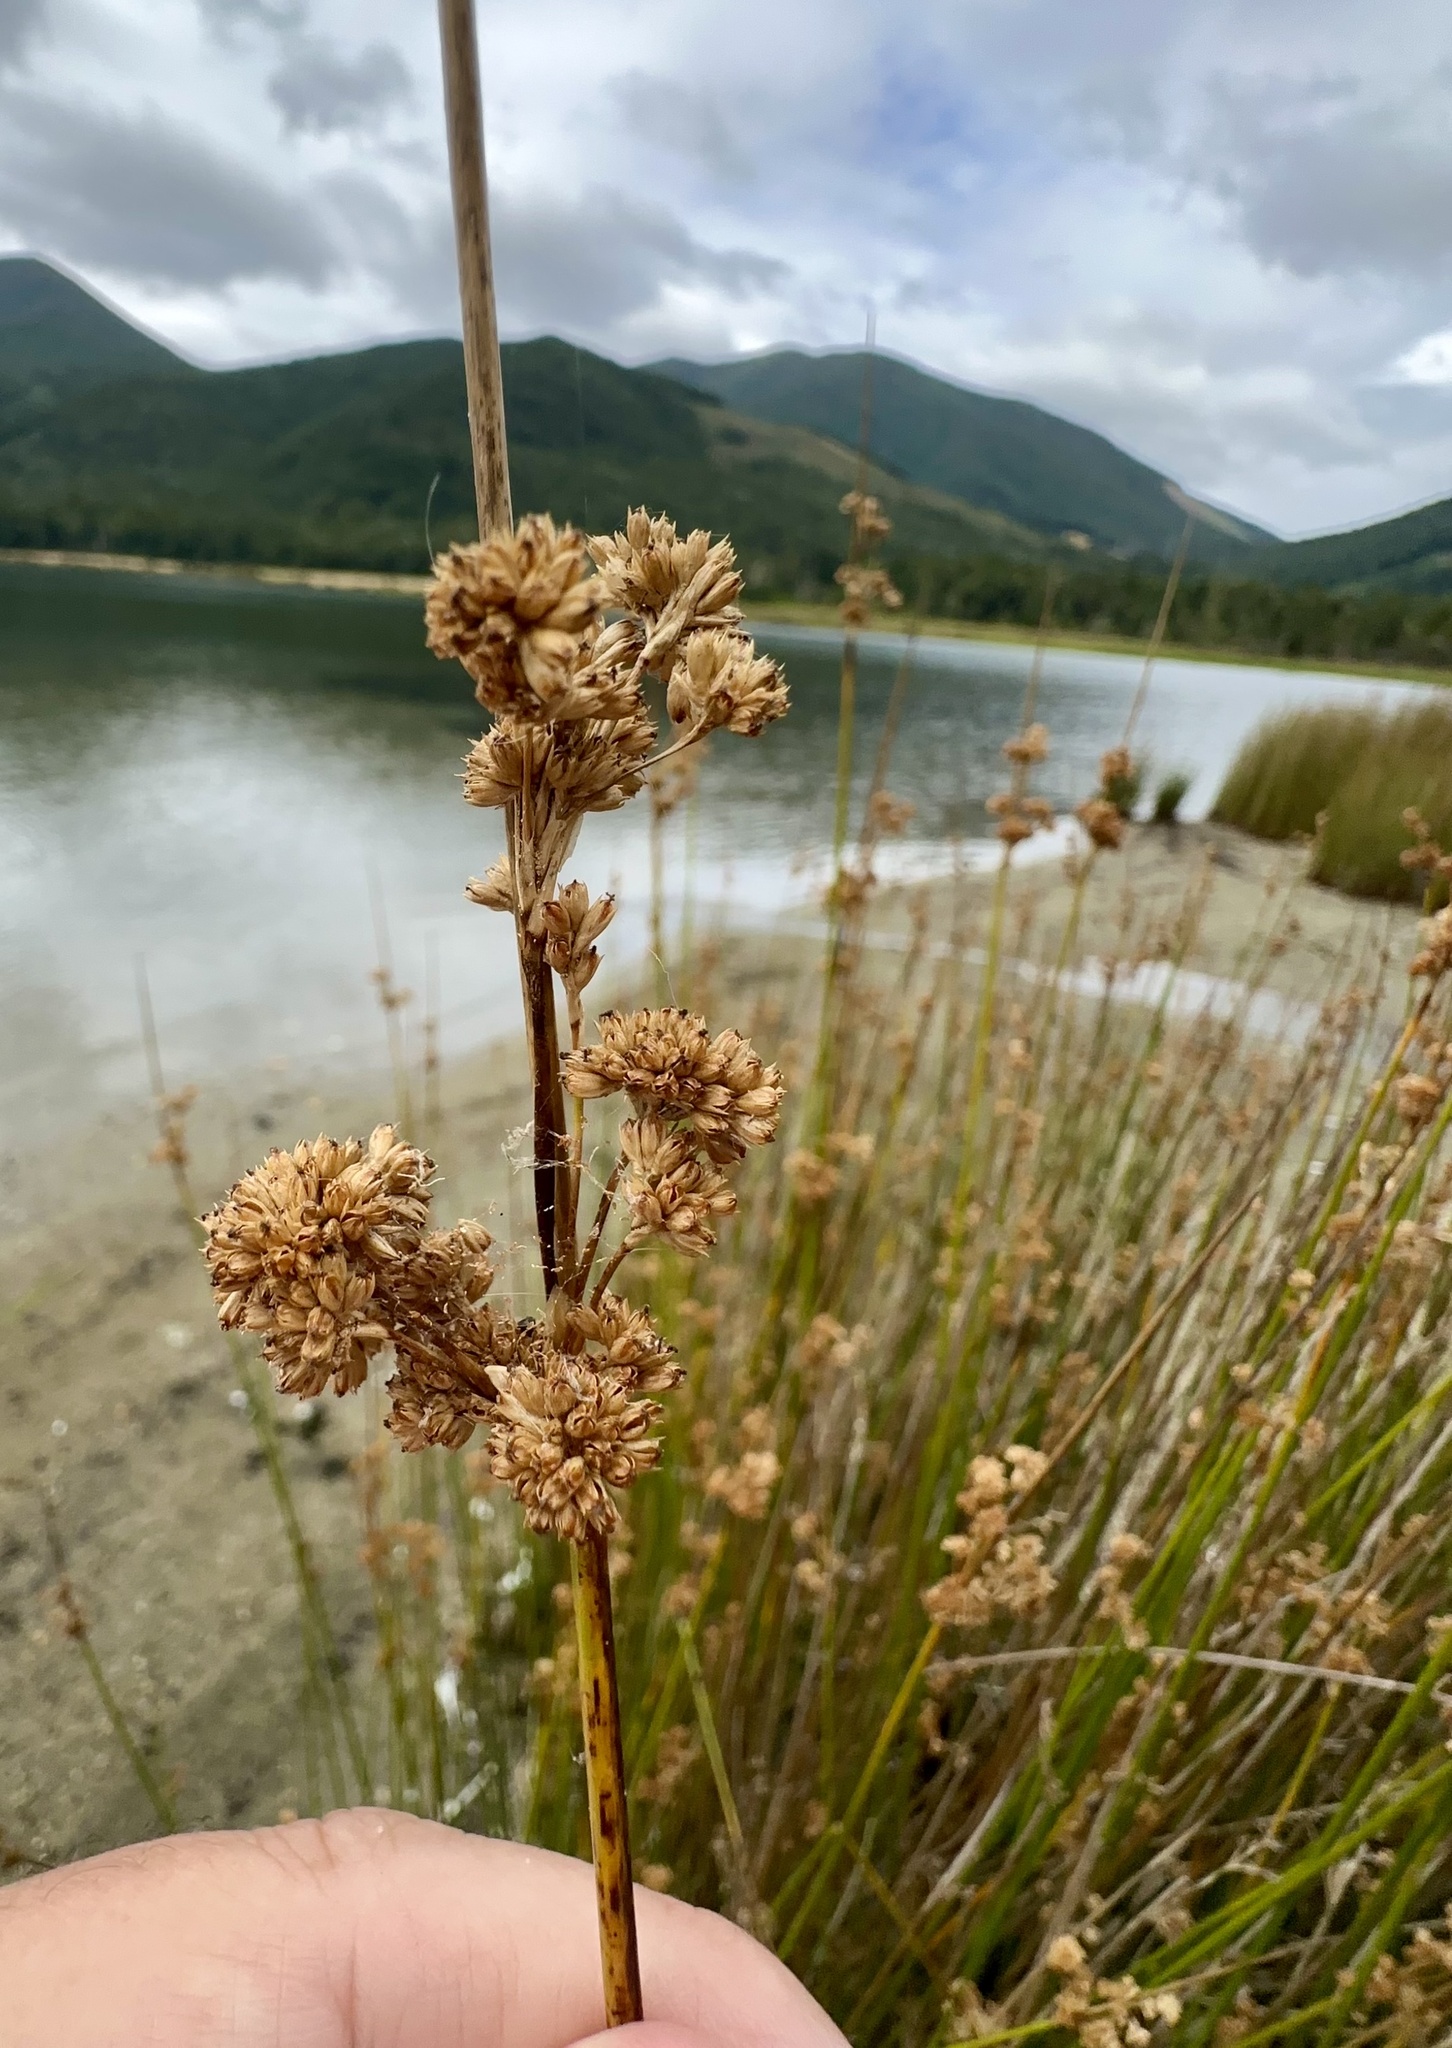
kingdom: Plantae
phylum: Tracheophyta
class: Liliopsida
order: Poales
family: Juncaceae
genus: Juncus
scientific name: Juncus edgariae
